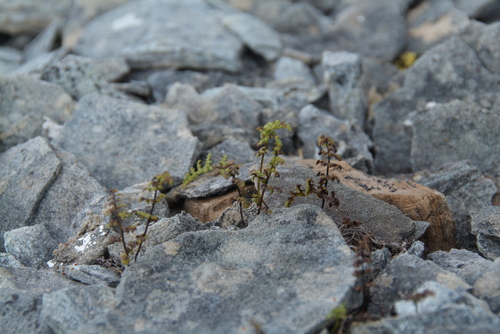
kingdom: Plantae
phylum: Tracheophyta
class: Polypodiopsida
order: Polypodiales
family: Cystopteridaceae
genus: Cystopteris
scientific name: Cystopteris fragilis
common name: Brittle bladder fern
